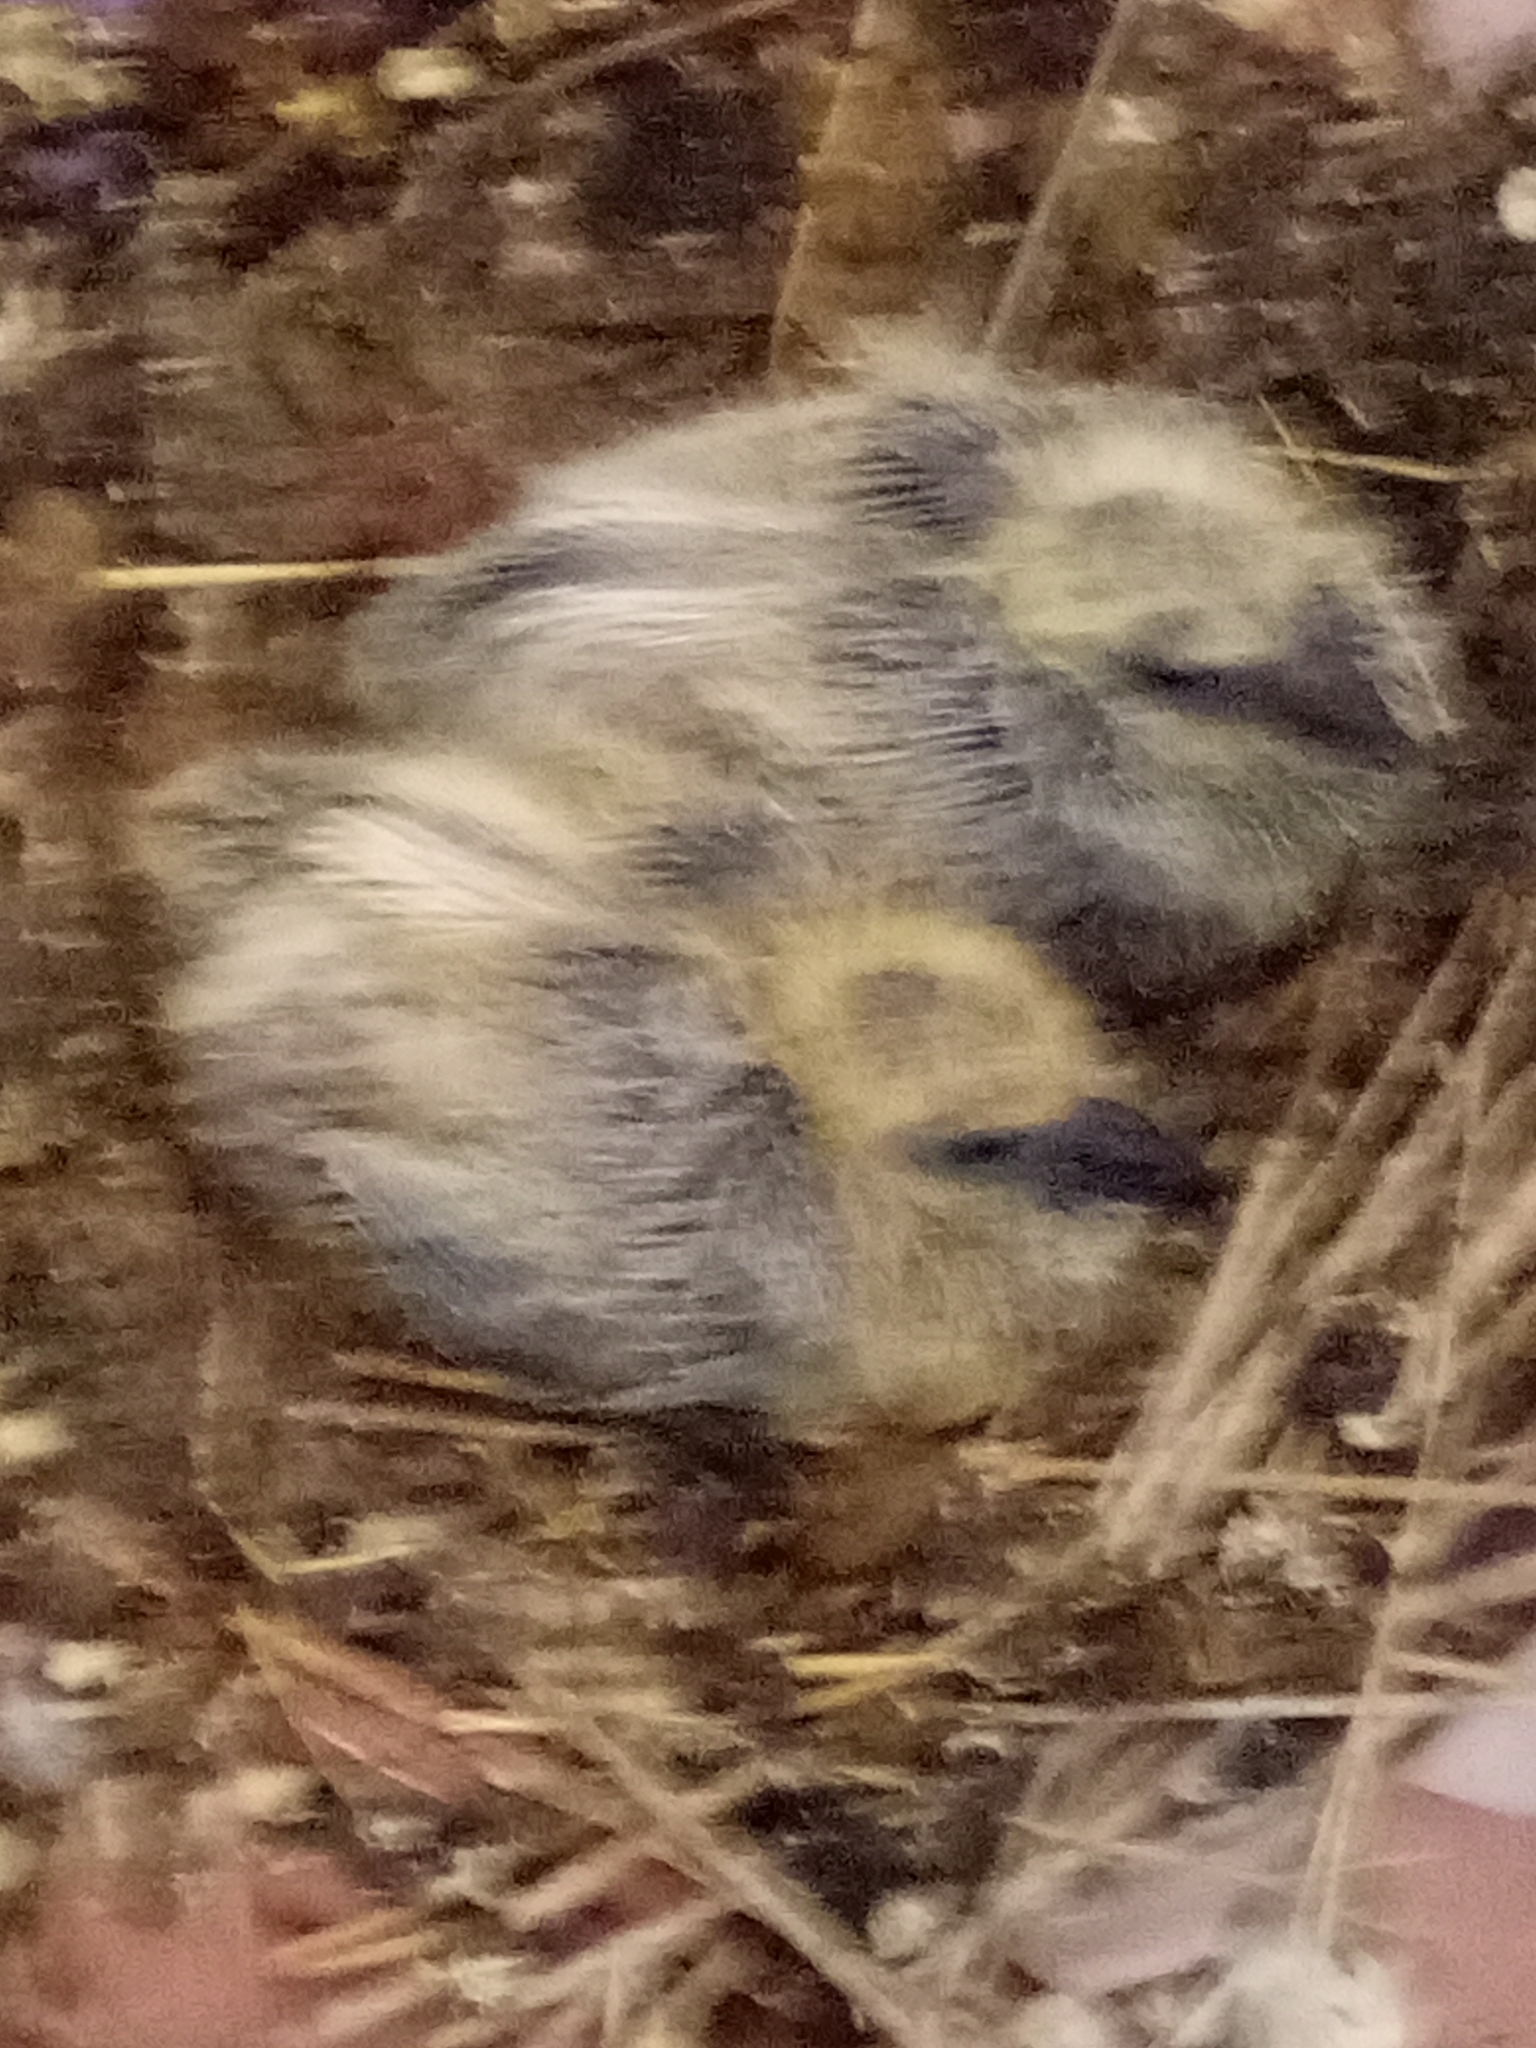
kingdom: Animalia
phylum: Chordata
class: Aves
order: Columbiformes
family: Columbidae
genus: Columba
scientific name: Columba livia
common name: Rock pigeon
